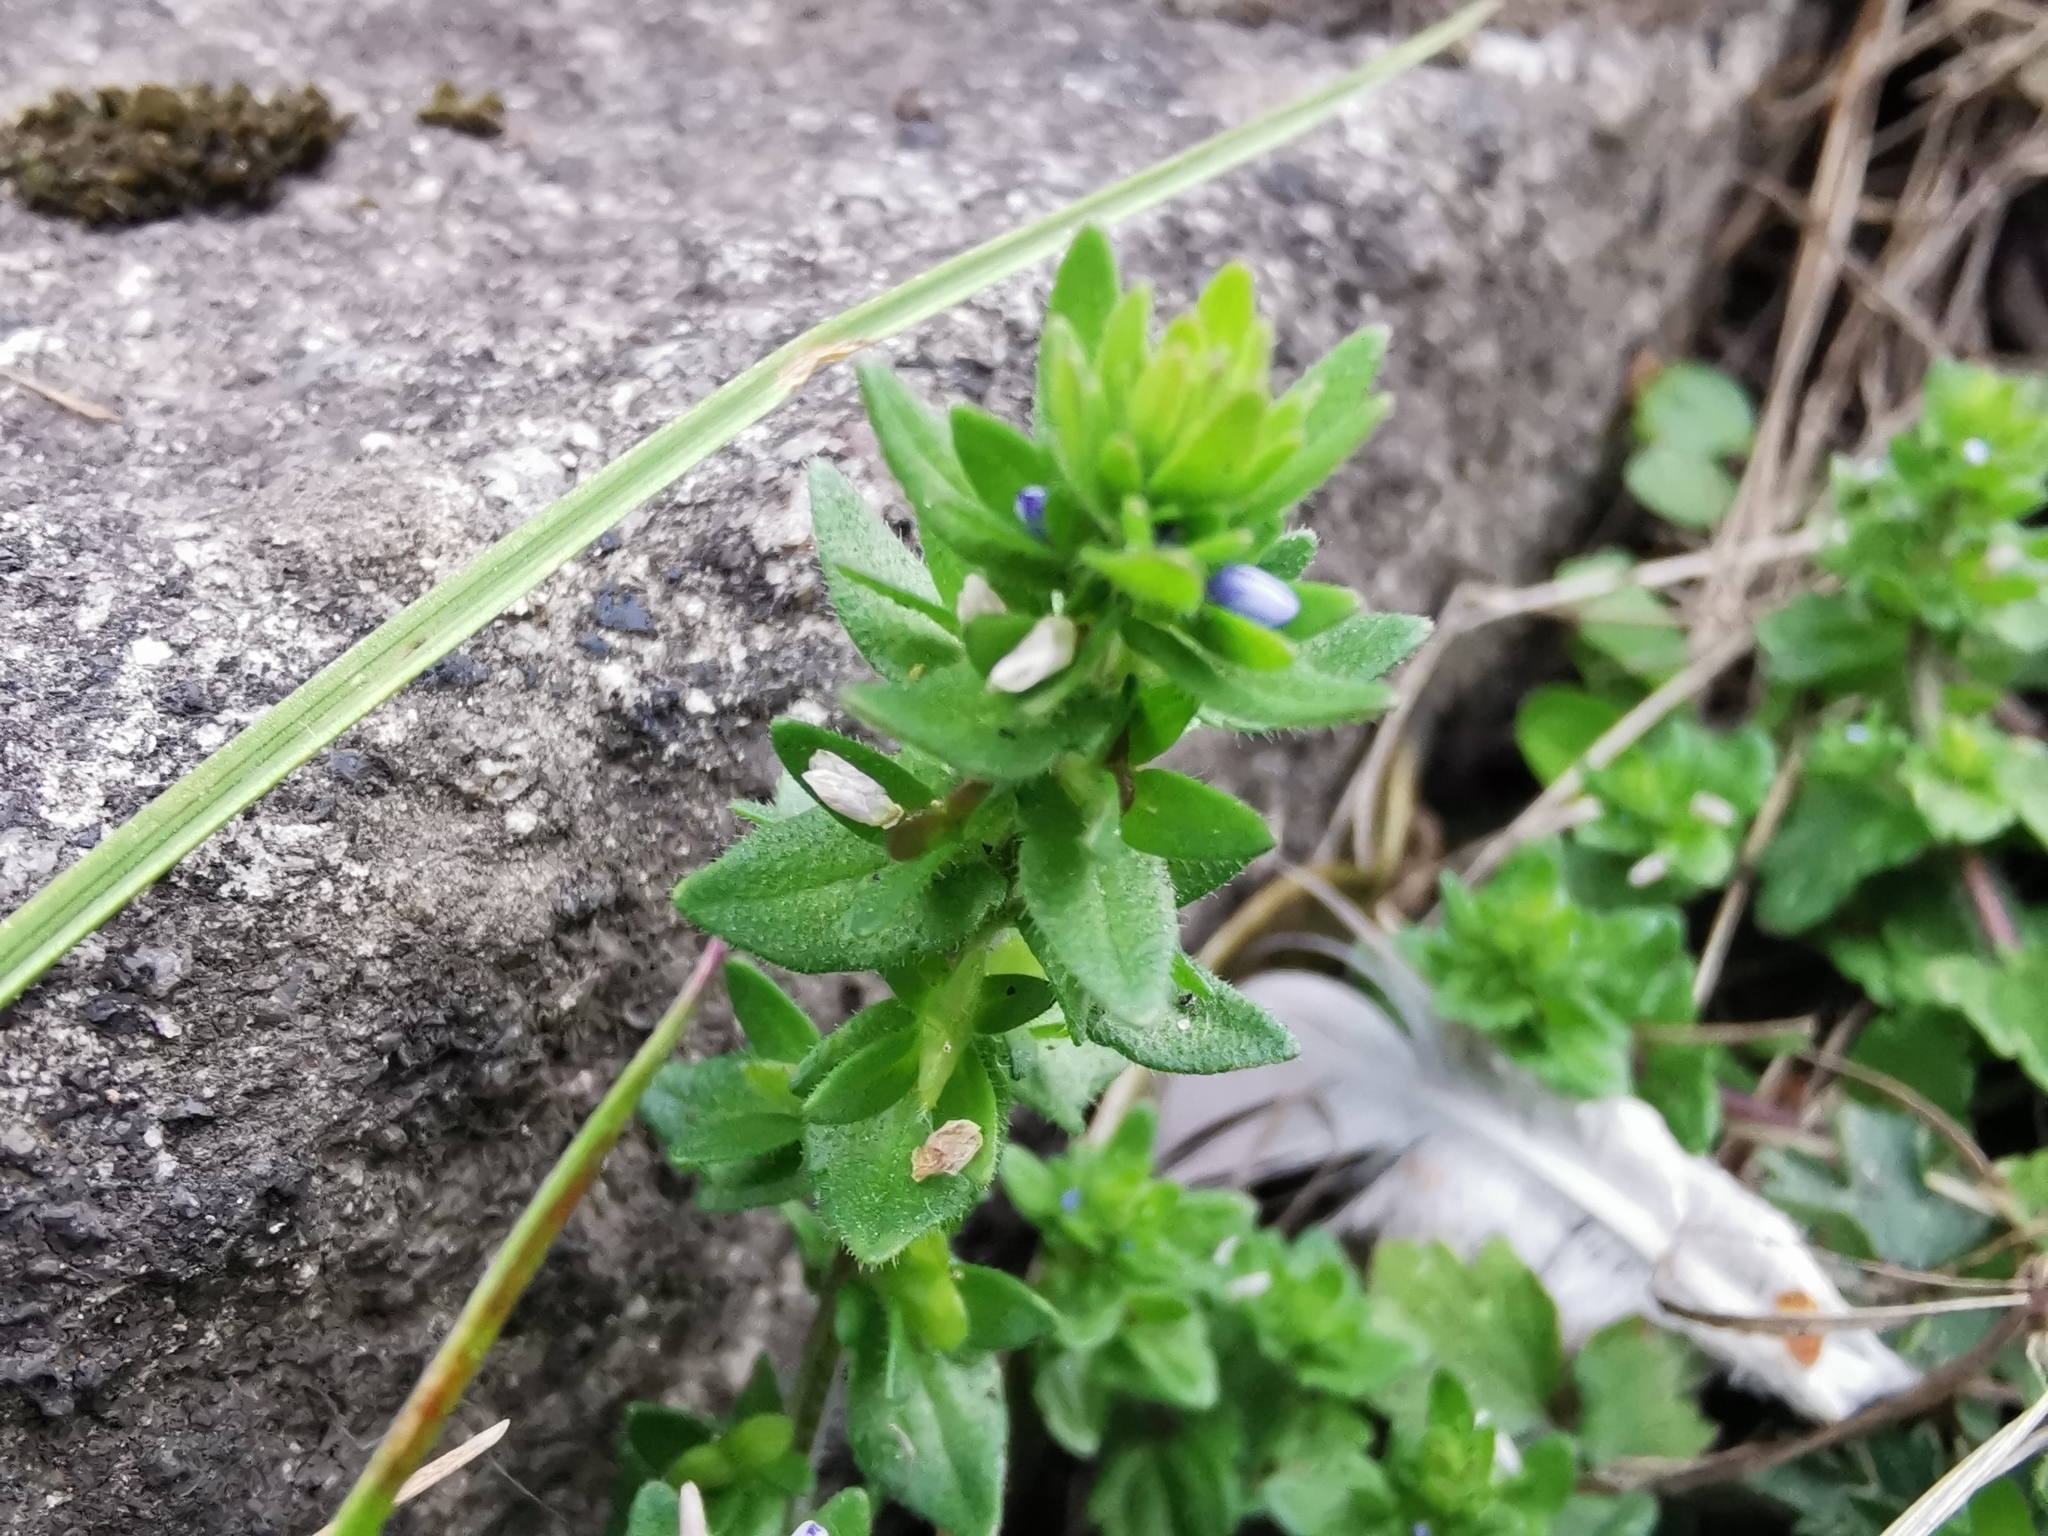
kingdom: Plantae
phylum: Tracheophyta
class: Magnoliopsida
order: Lamiales
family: Plantaginaceae
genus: Veronica
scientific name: Veronica arvensis
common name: Corn speedwell
